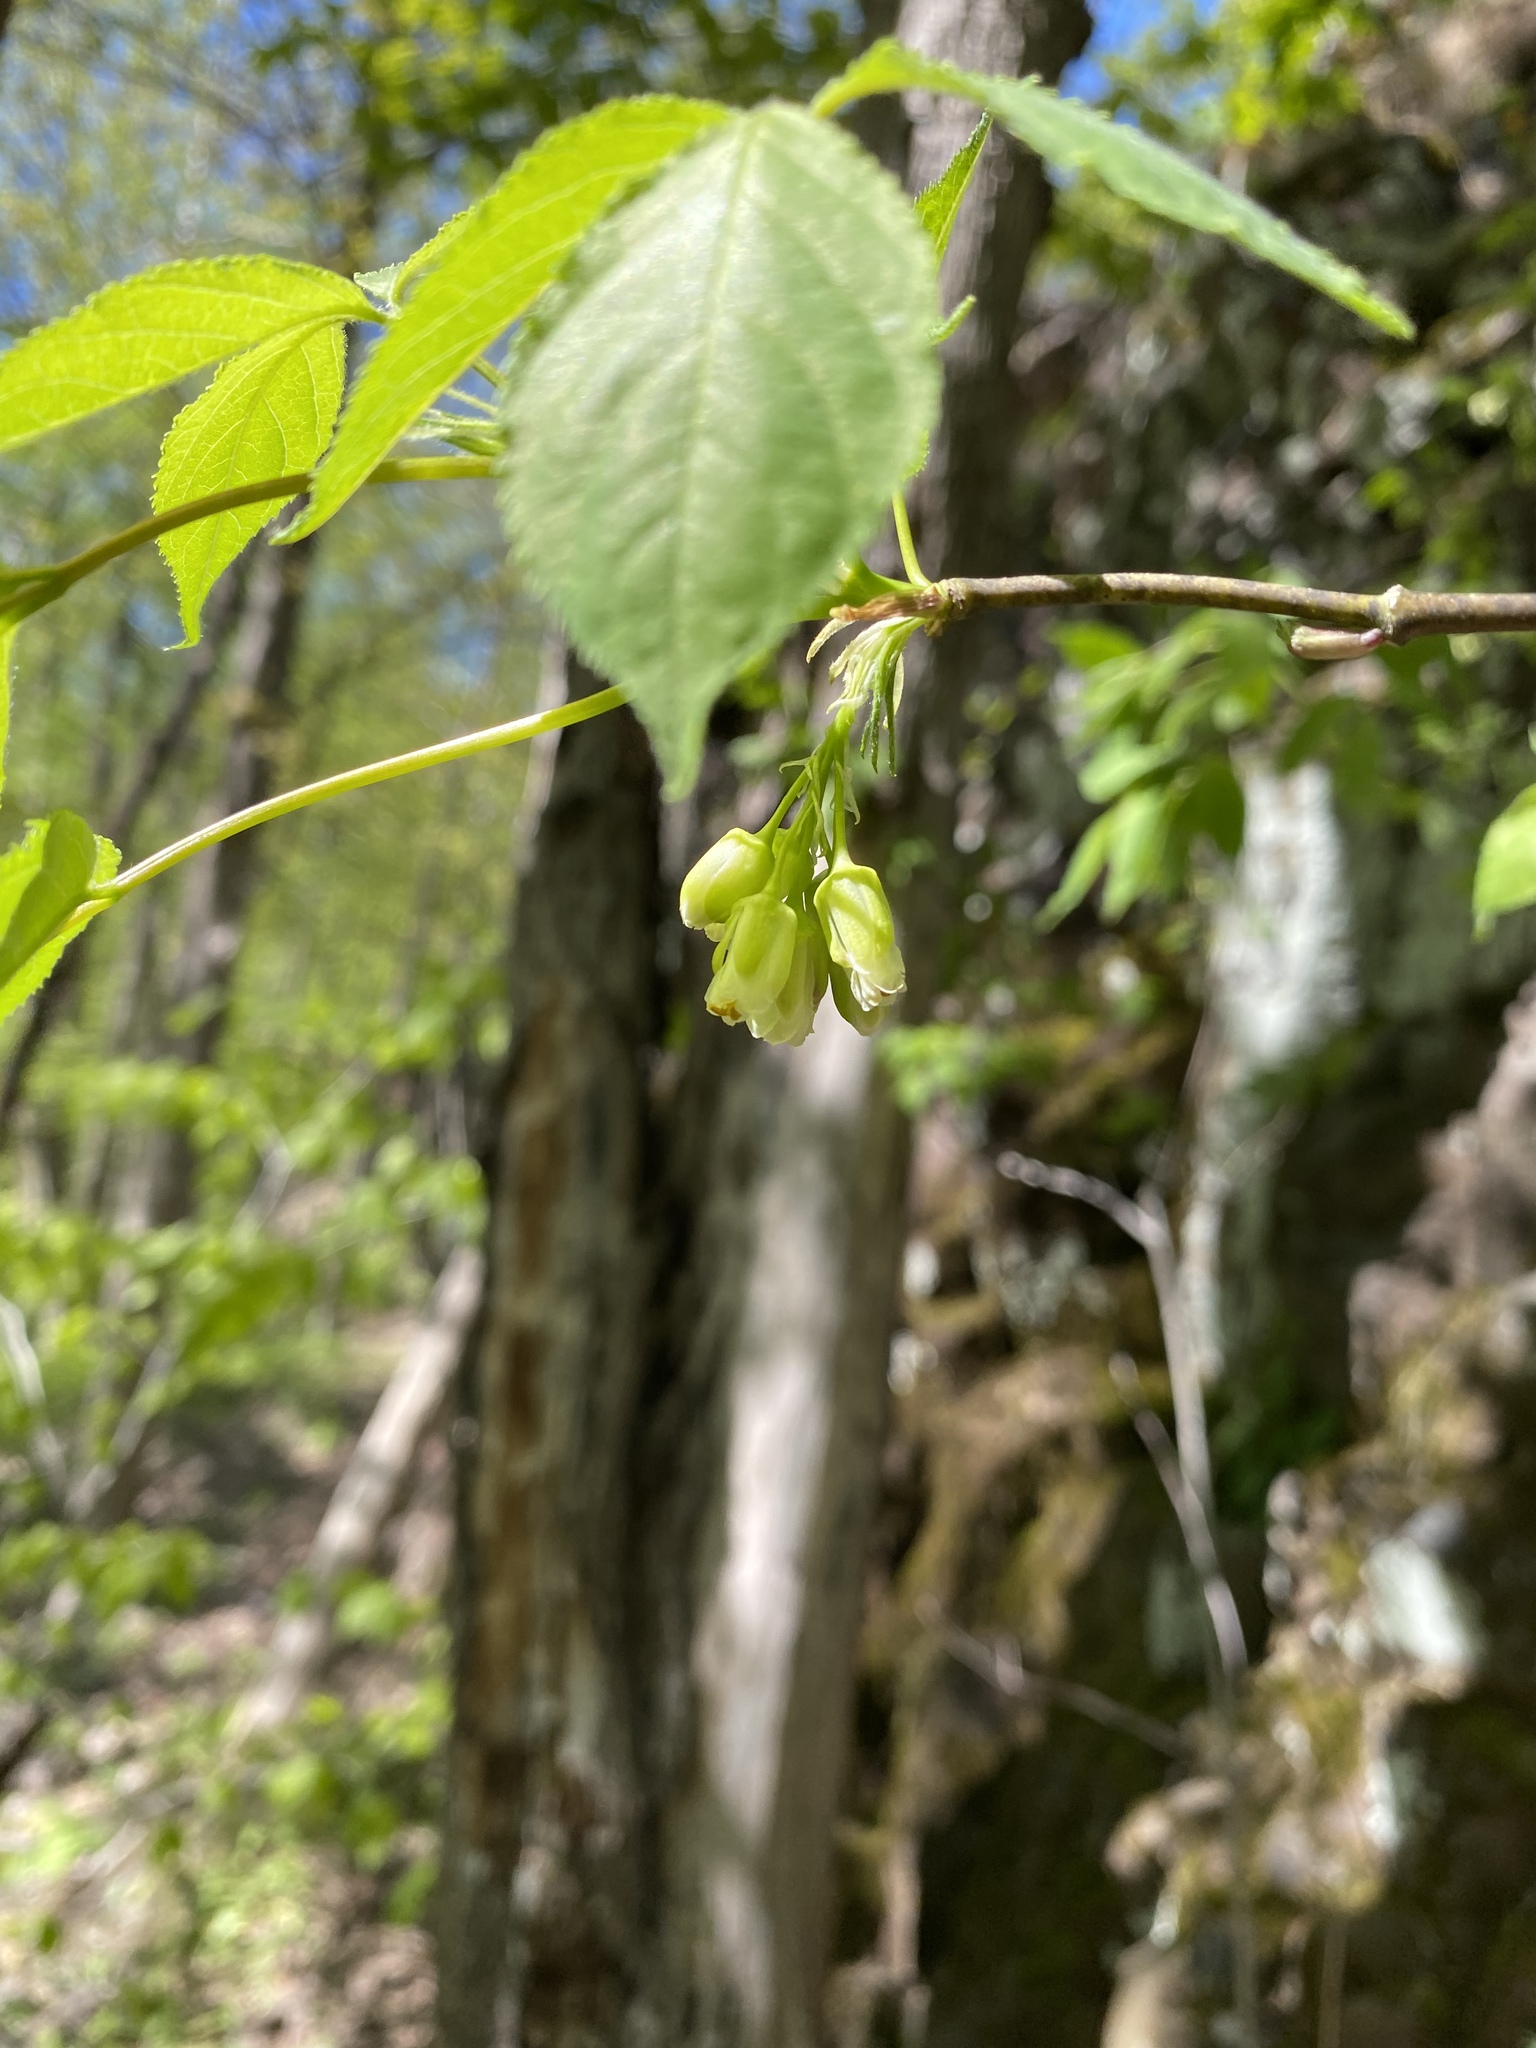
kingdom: Plantae
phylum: Tracheophyta
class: Magnoliopsida
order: Crossosomatales
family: Staphyleaceae
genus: Staphylea
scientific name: Staphylea trifolia
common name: American bladdernut
